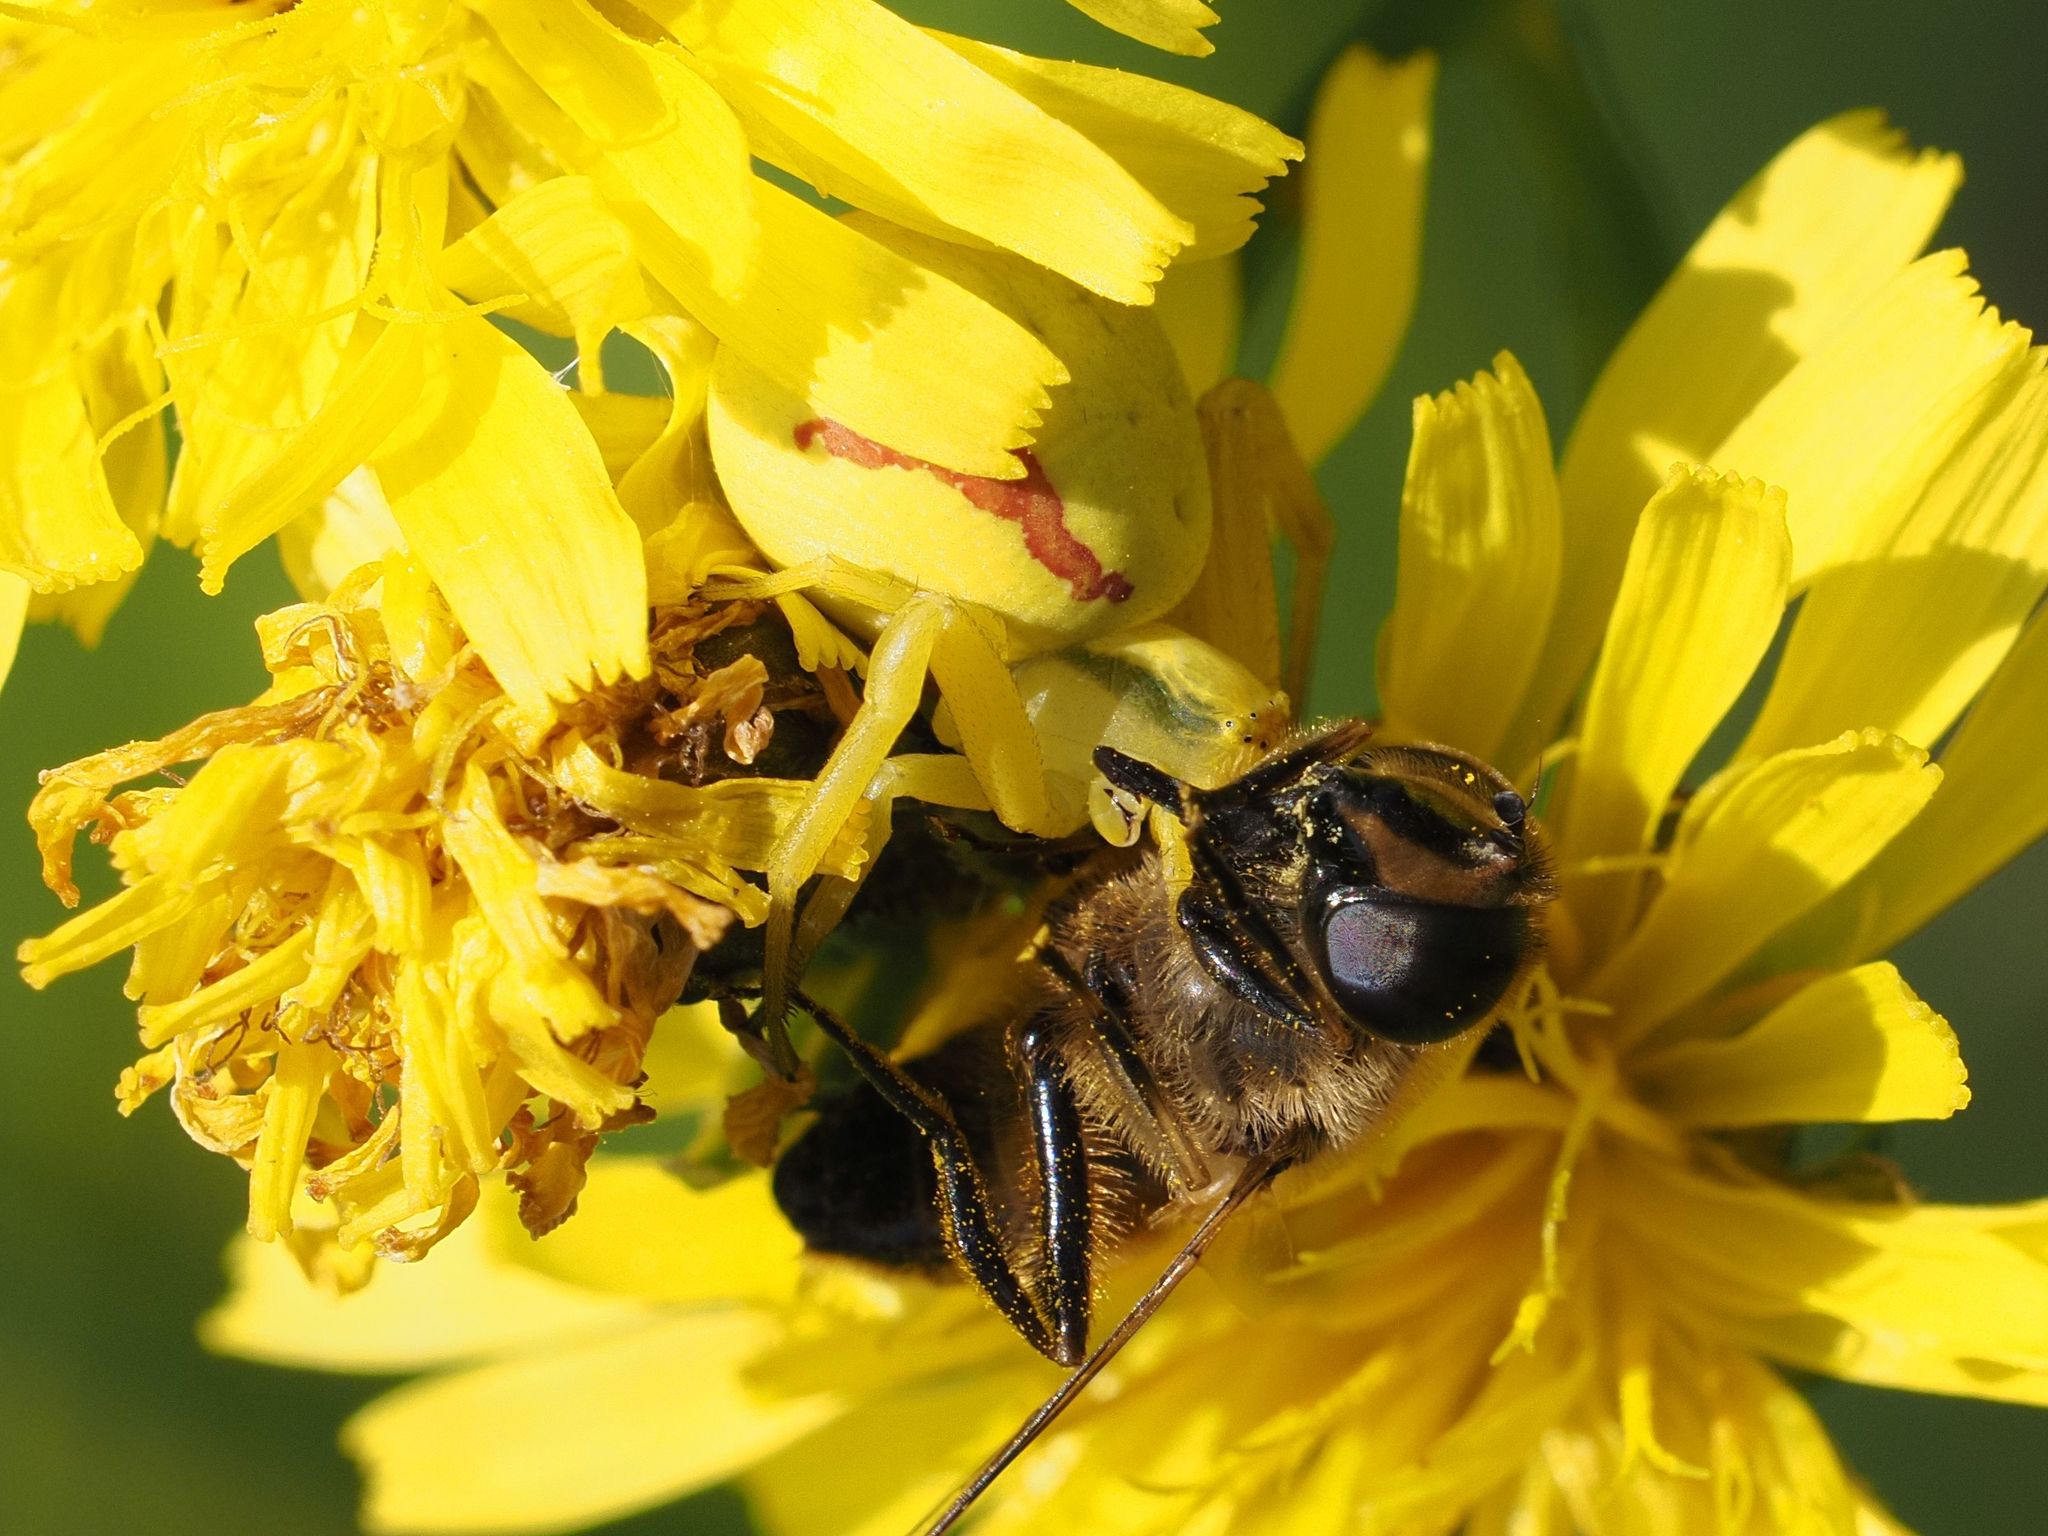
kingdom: Animalia
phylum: Arthropoda
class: Arachnida
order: Araneae
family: Thomisidae
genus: Misumena
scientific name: Misumena vatia
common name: Goldenrod crab spider
